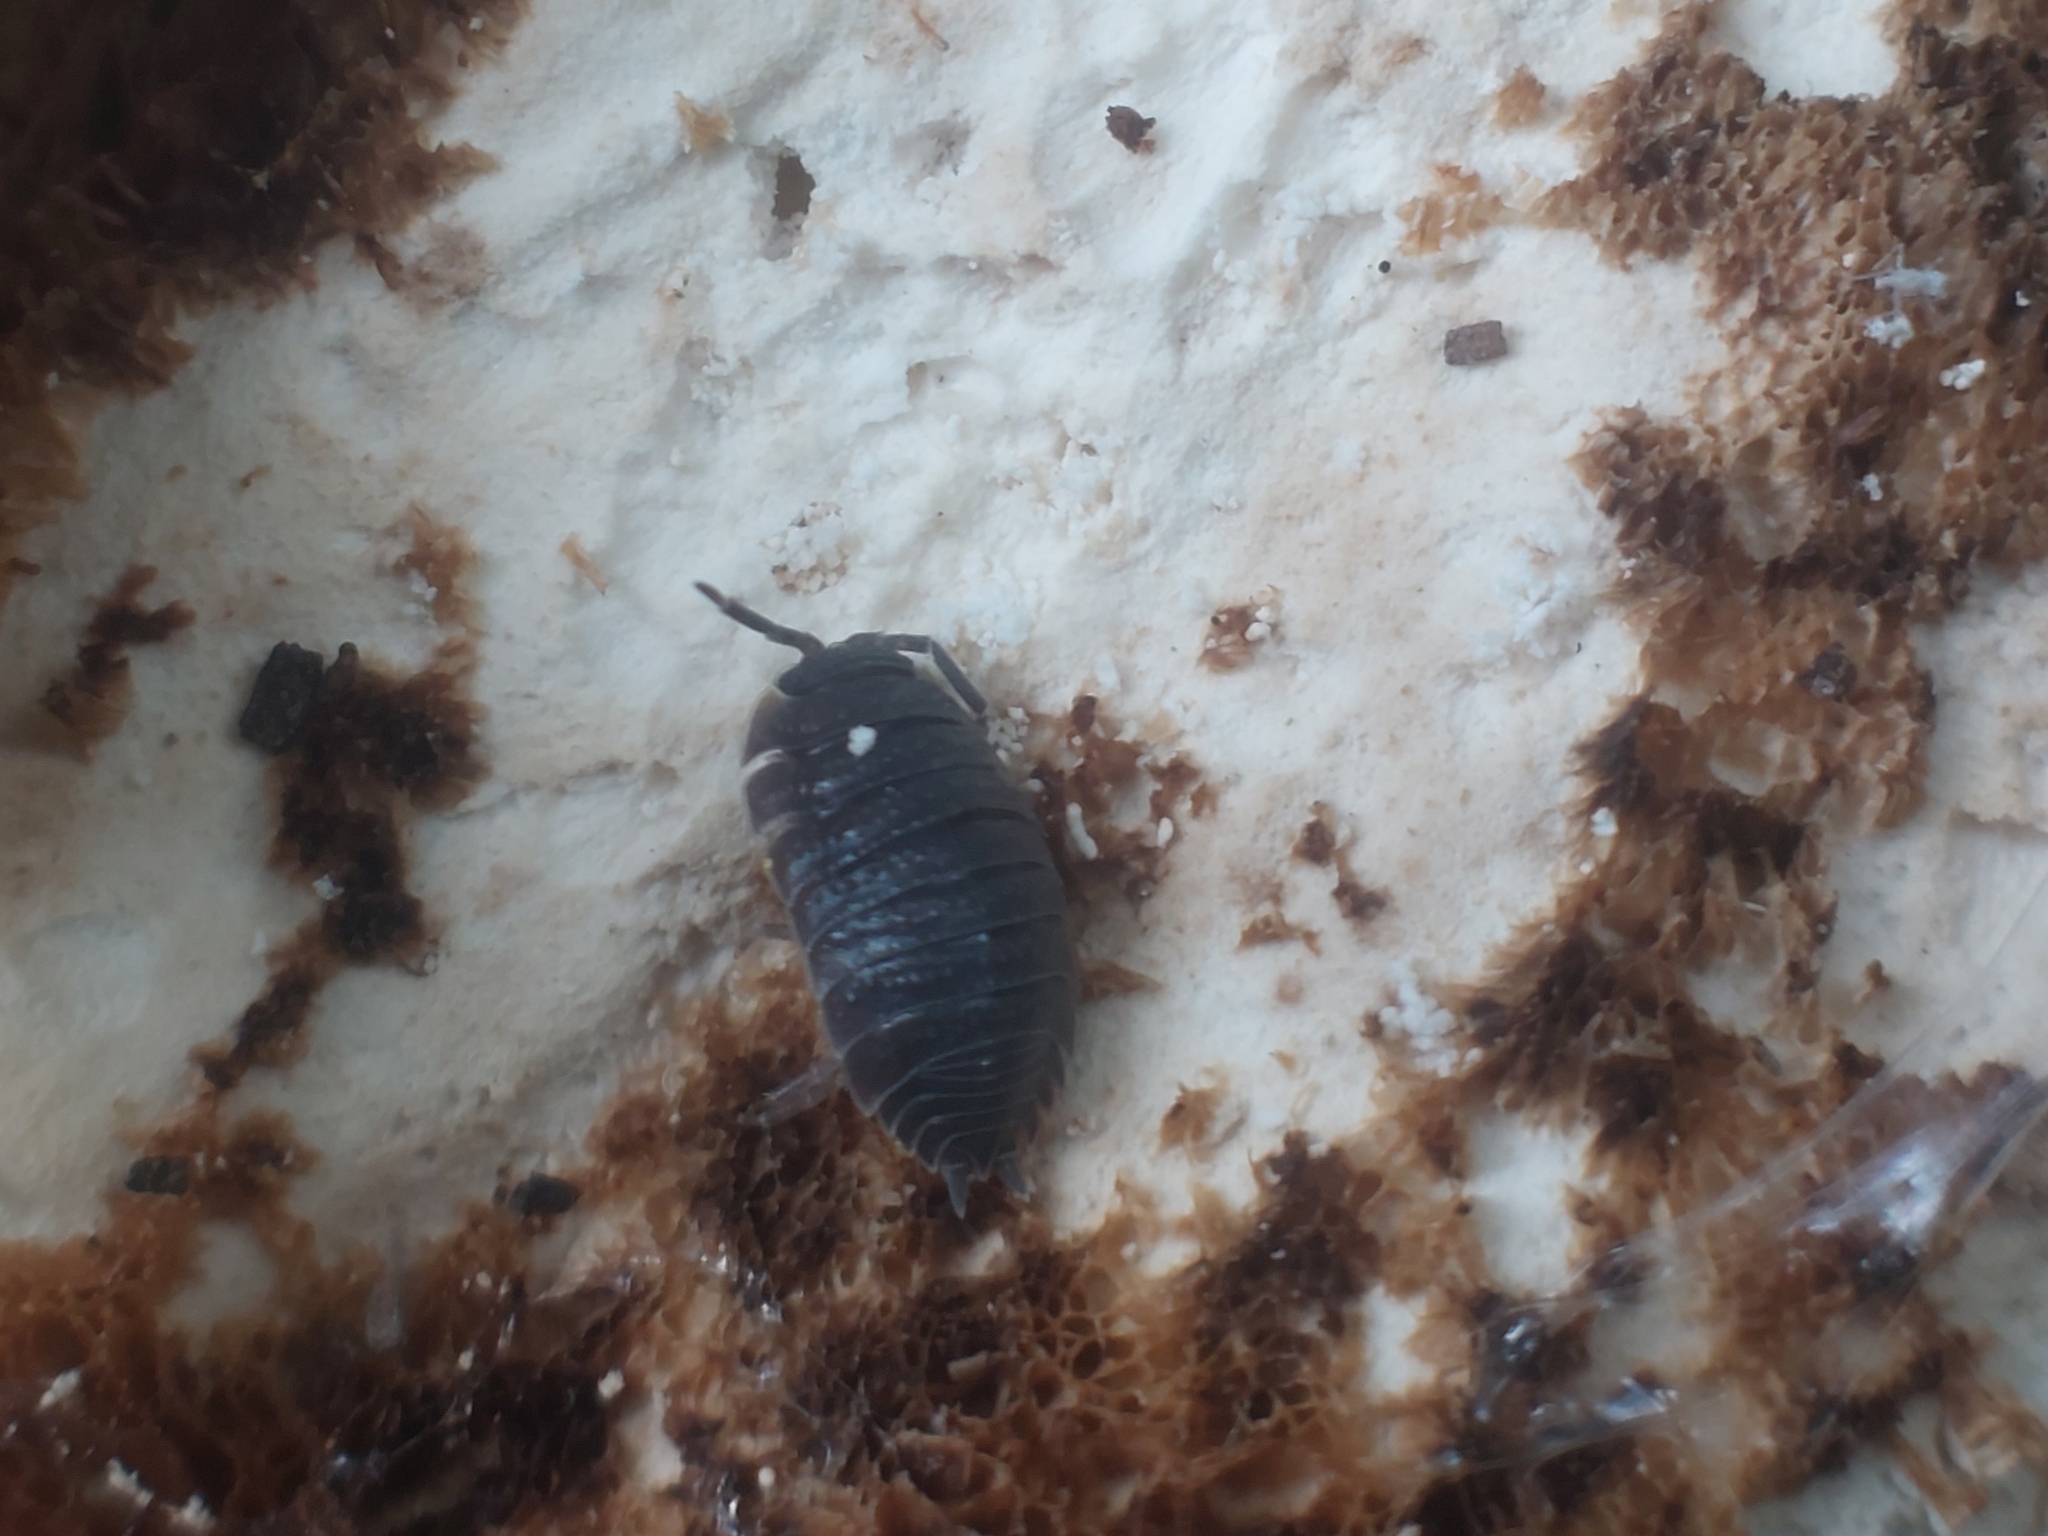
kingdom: Animalia
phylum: Arthropoda
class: Malacostraca
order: Isopoda
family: Porcellionidae
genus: Porcellio
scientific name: Porcellio scaber
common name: Common rough woodlouse
